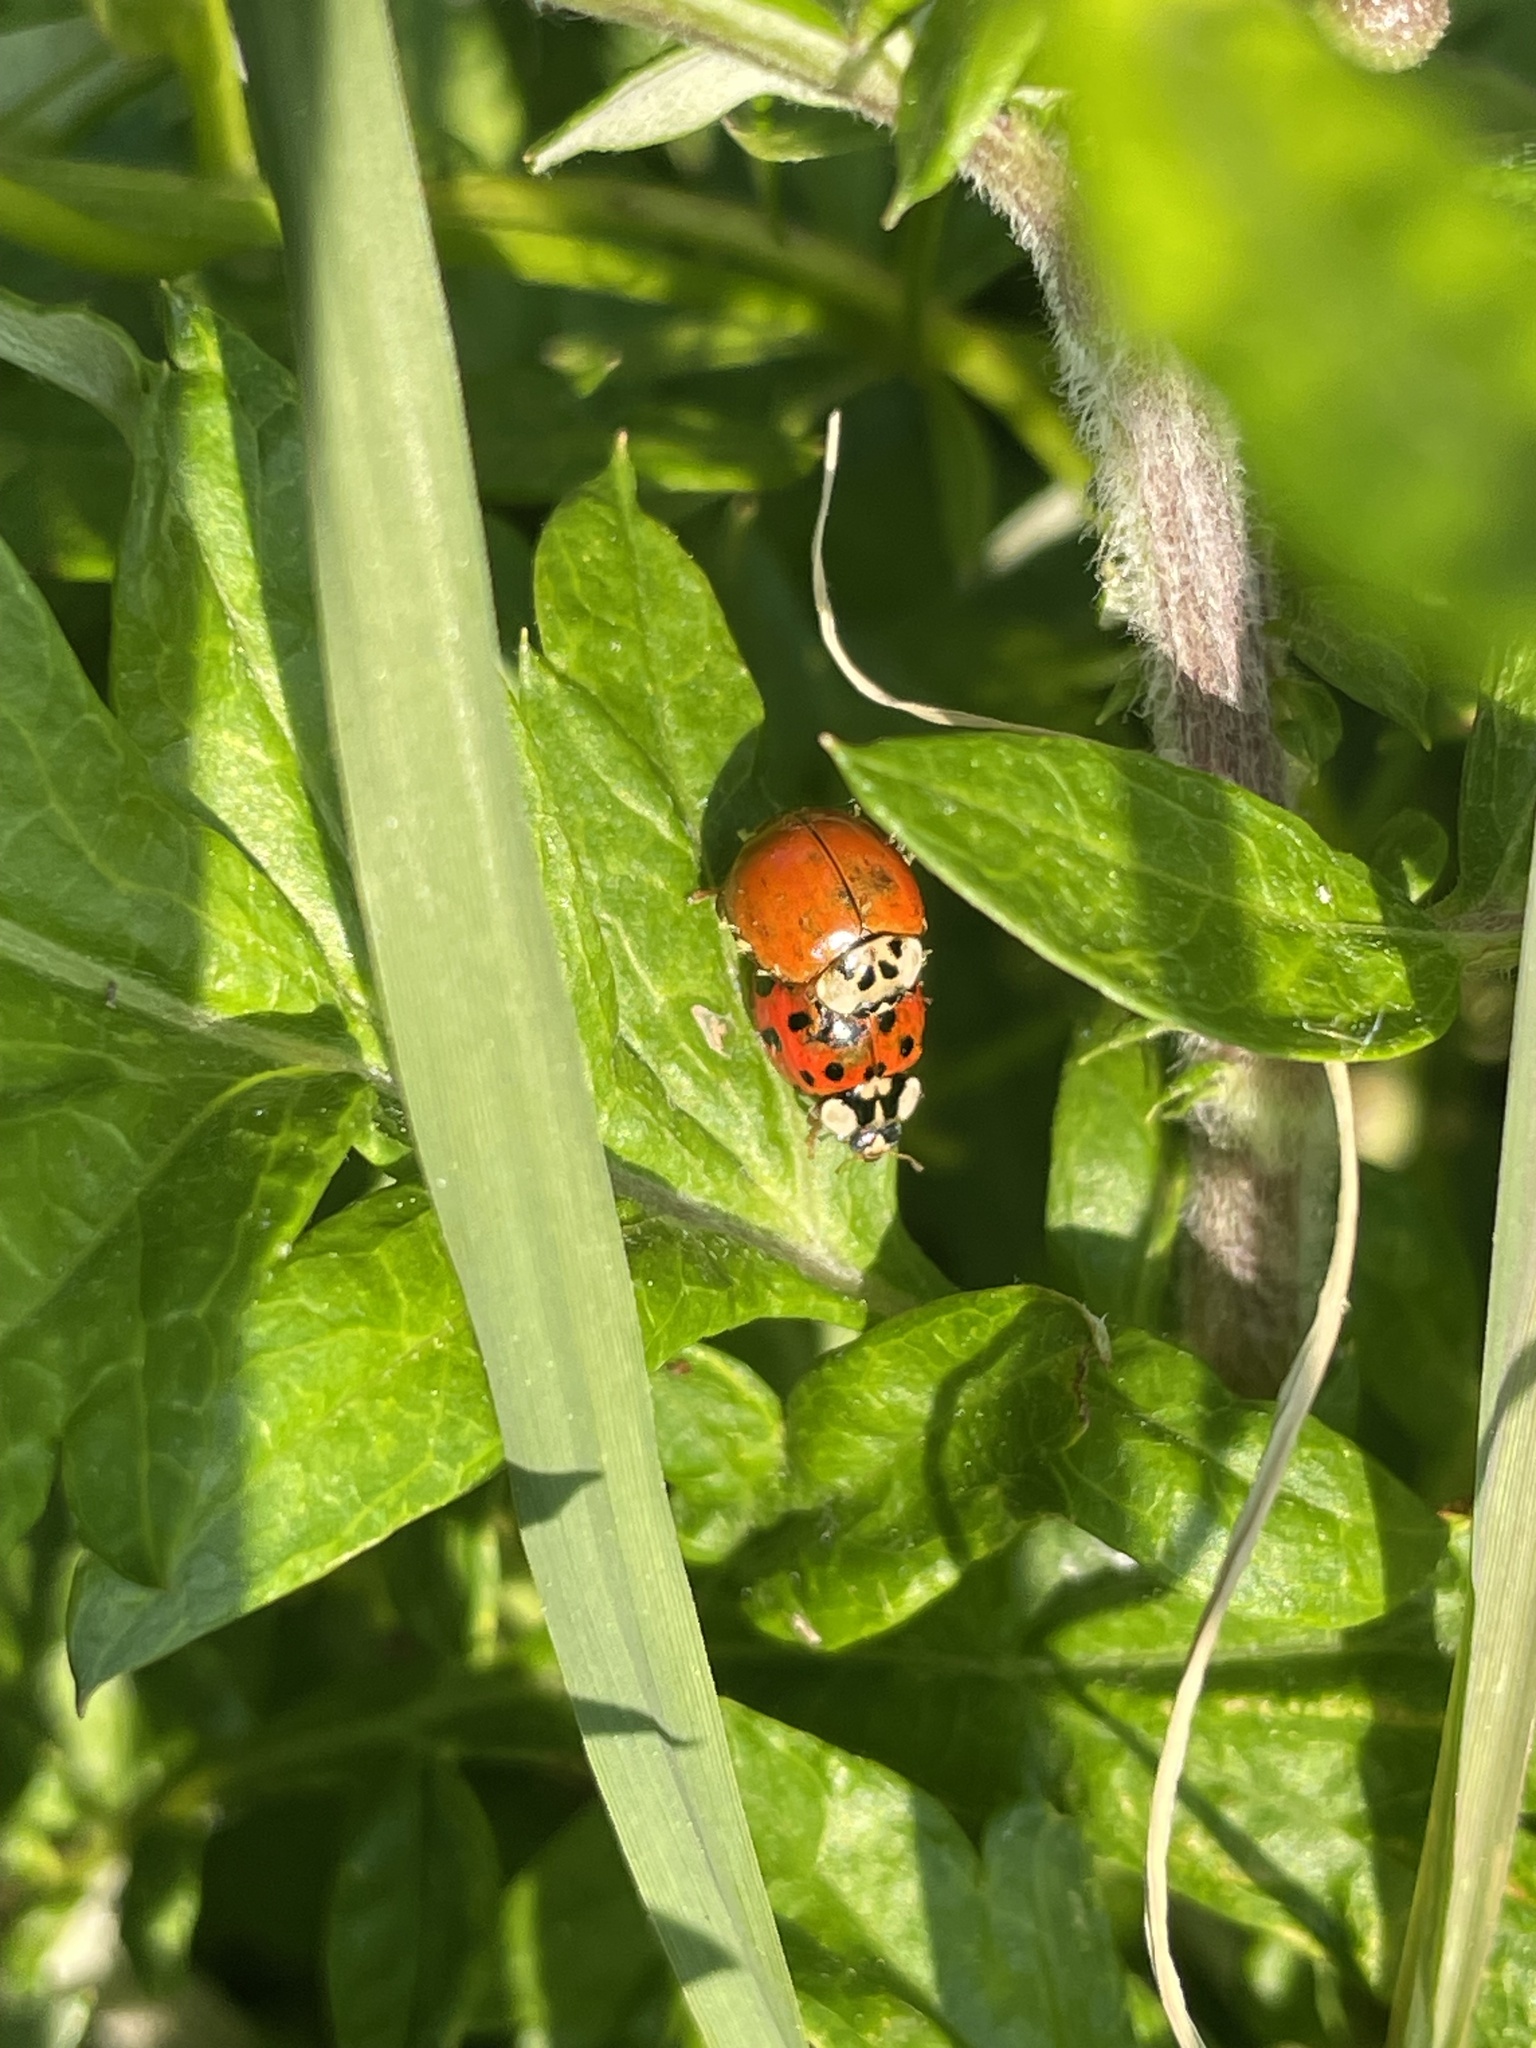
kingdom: Animalia
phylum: Arthropoda
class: Insecta
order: Coleoptera
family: Coccinellidae
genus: Harmonia
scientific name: Harmonia axyridis
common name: Harlequin ladybird
